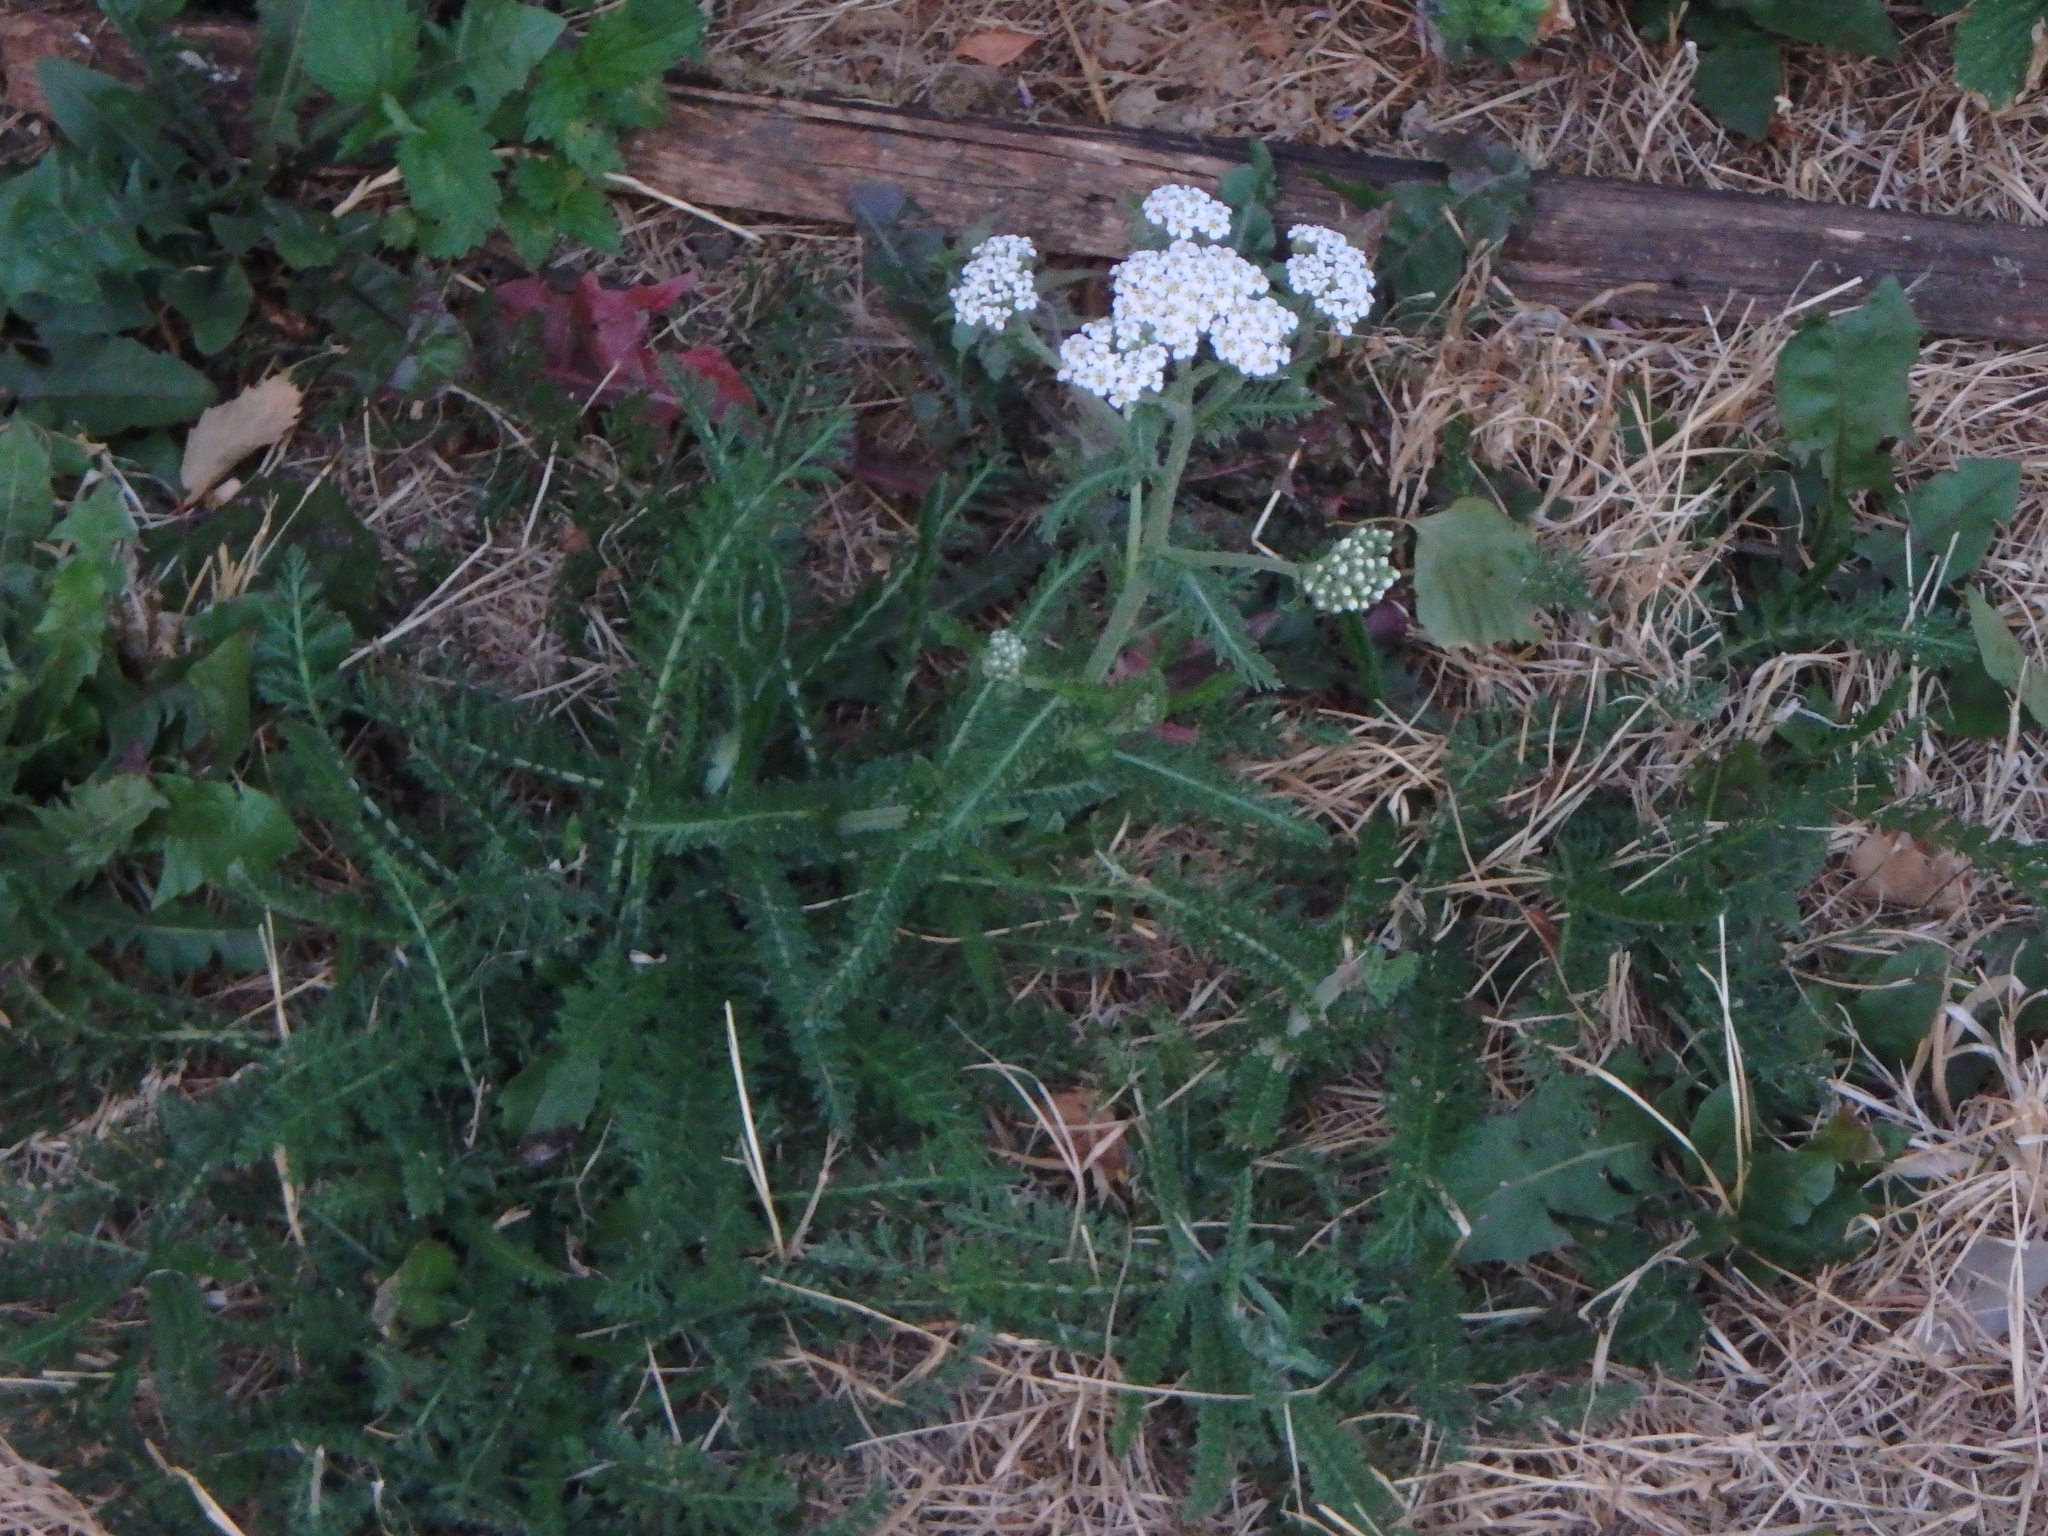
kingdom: Plantae
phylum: Tracheophyta
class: Magnoliopsida
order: Asterales
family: Asteraceae
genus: Achillea
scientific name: Achillea millefolium
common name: Yarrow
